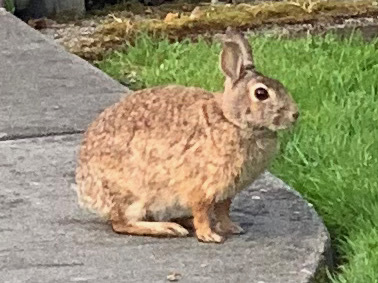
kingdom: Animalia
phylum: Chordata
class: Mammalia
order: Lagomorpha
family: Leporidae
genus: Sylvilagus
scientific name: Sylvilagus floridanus
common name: Eastern cottontail
